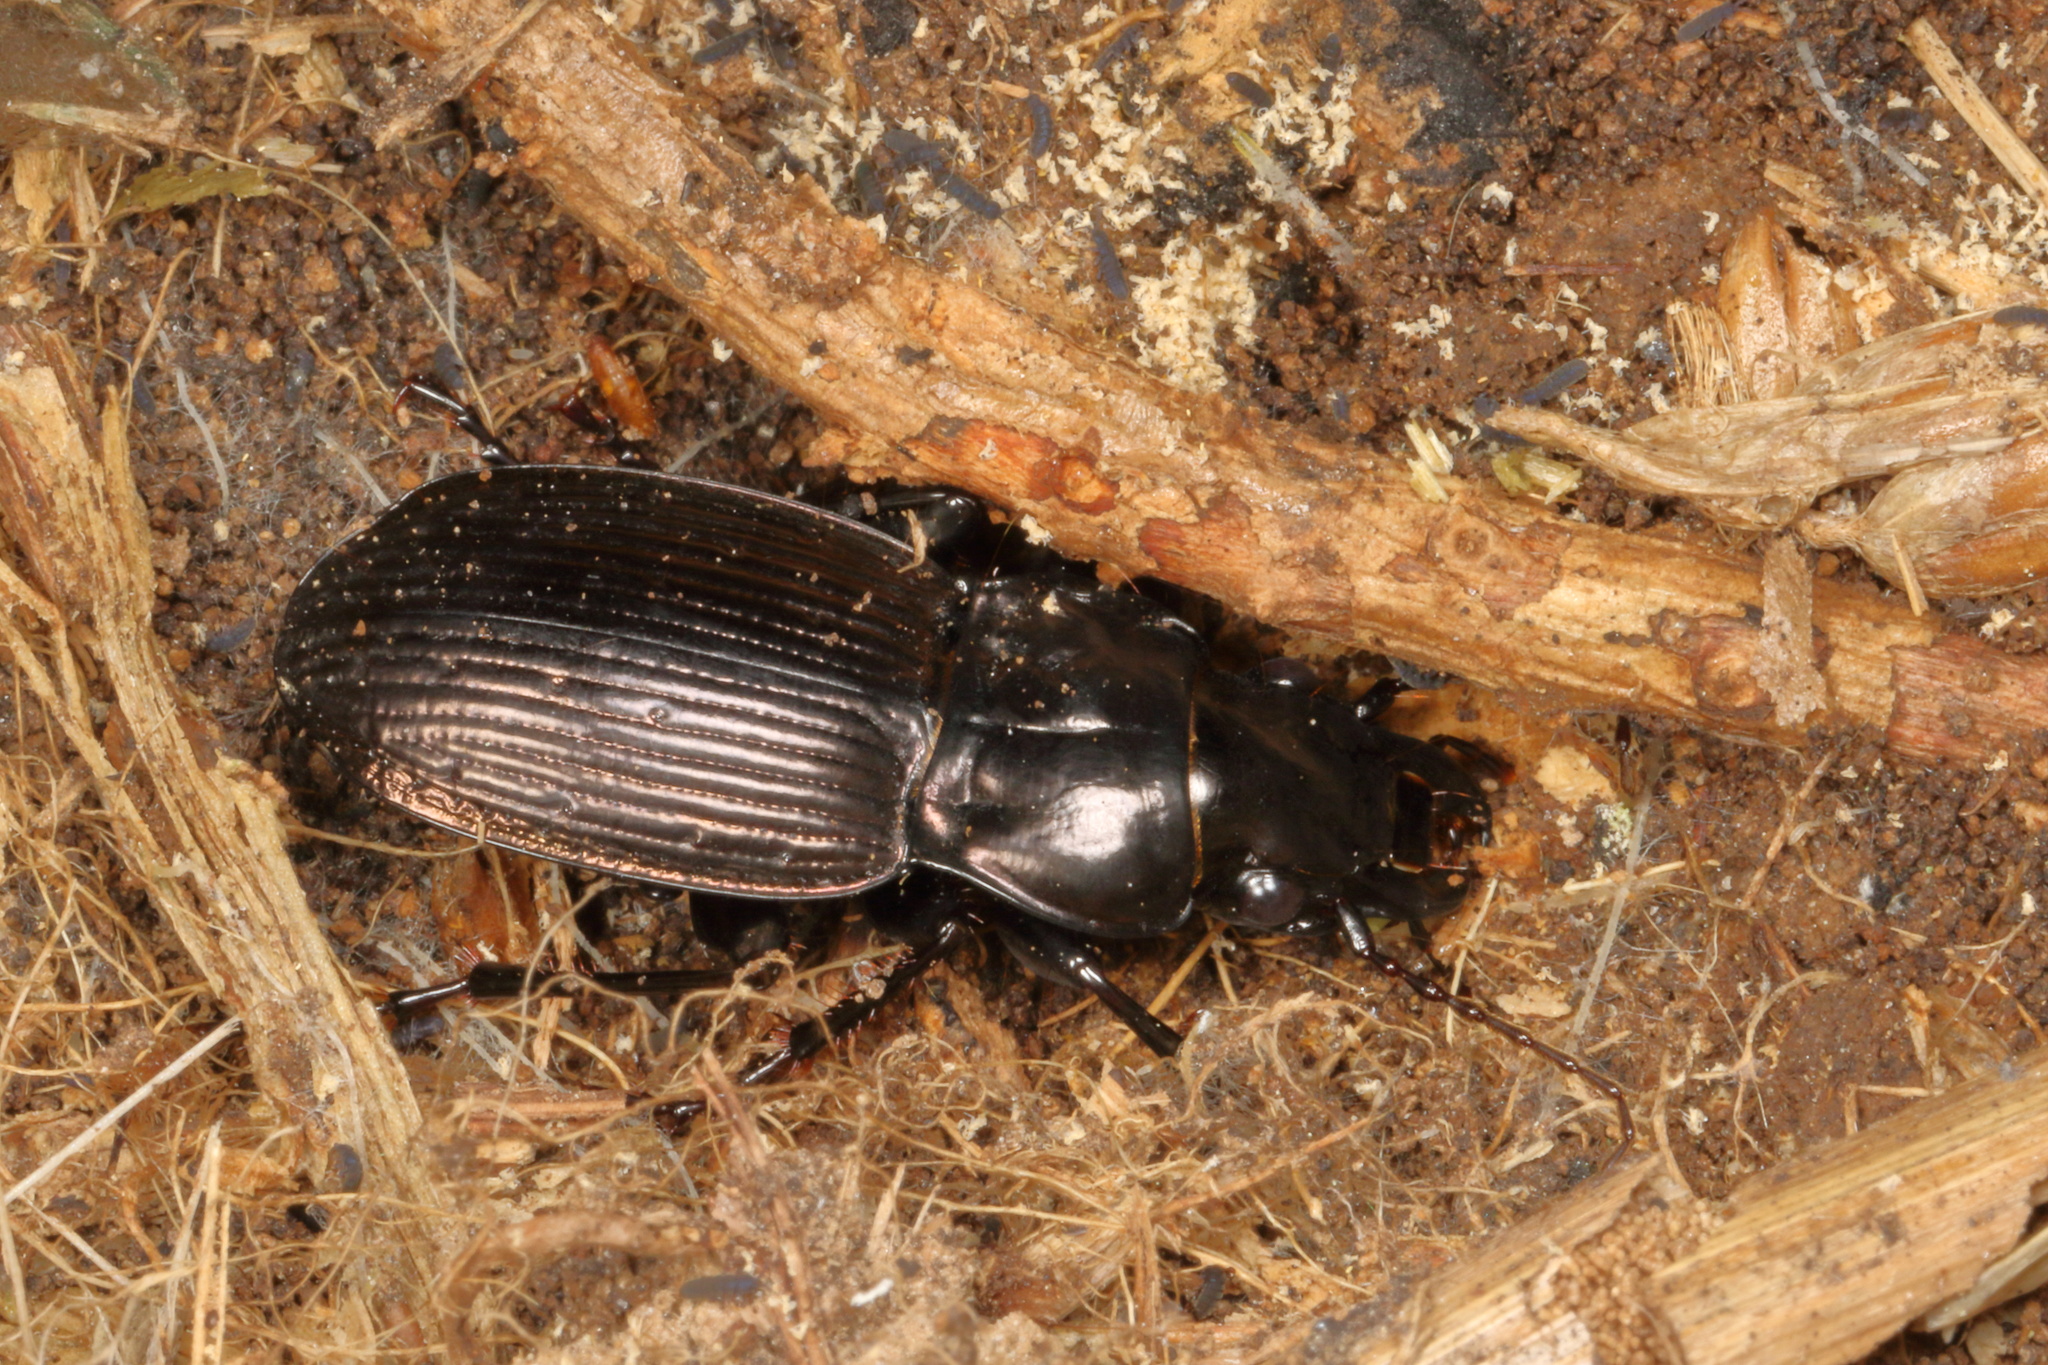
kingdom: Animalia
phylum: Arthropoda
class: Insecta
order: Coleoptera
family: Carabidae
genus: Megadromus
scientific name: Megadromus guerinii
